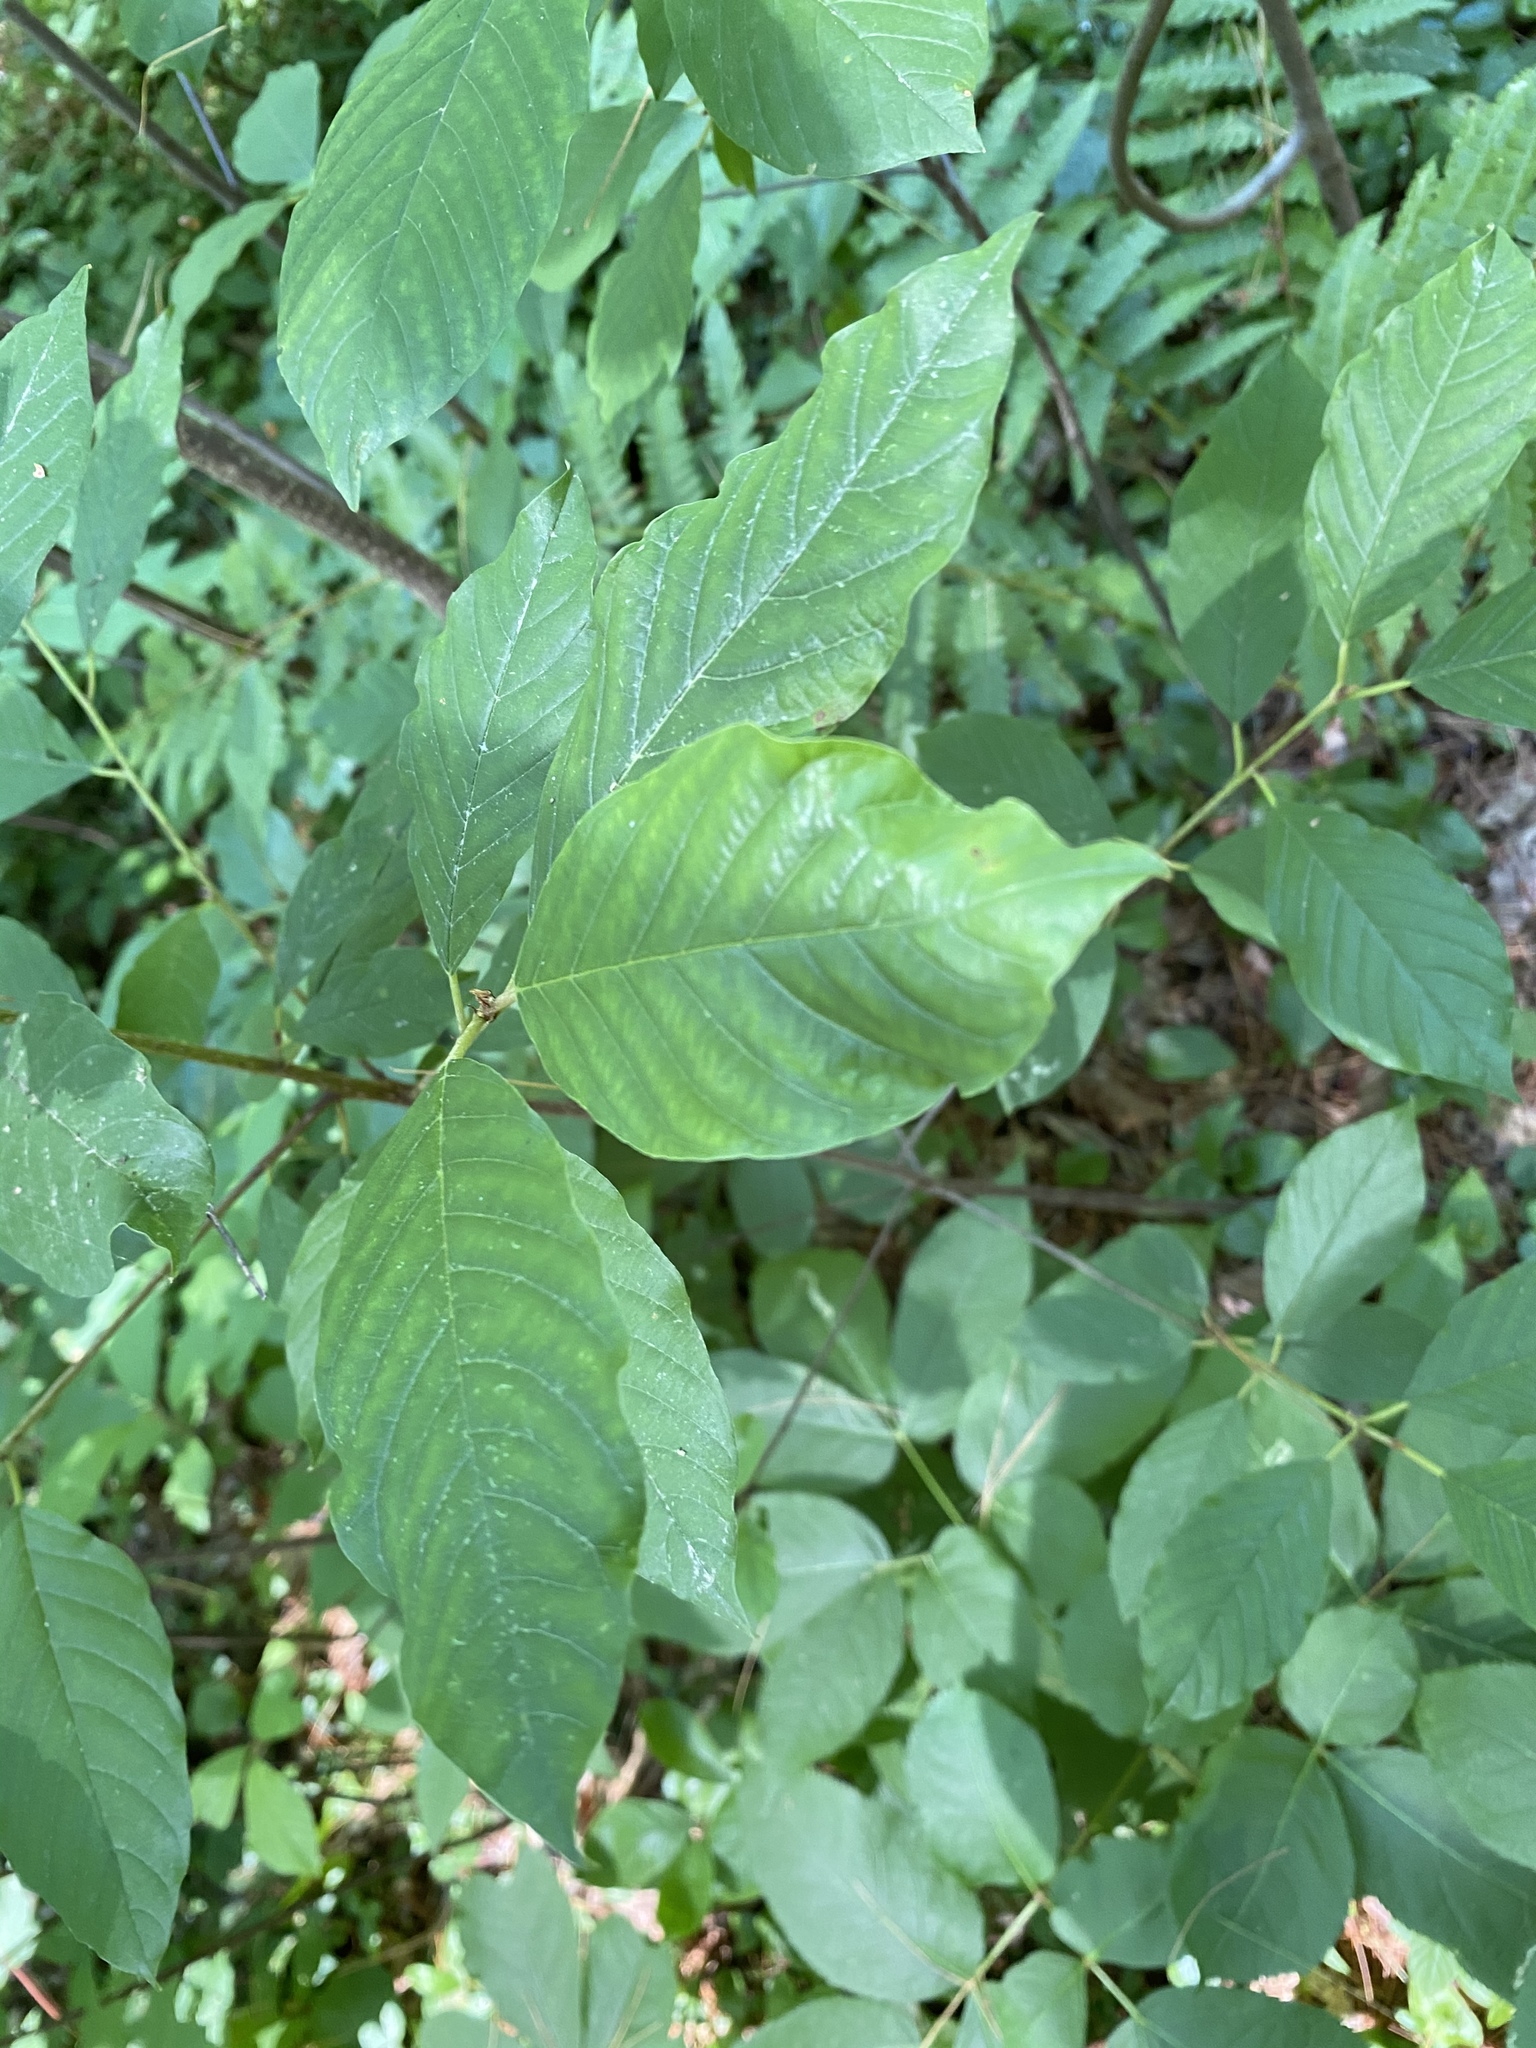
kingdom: Plantae
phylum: Tracheophyta
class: Magnoliopsida
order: Rosales
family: Rhamnaceae
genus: Frangula
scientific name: Frangula alnus
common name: Alder buckthorn
